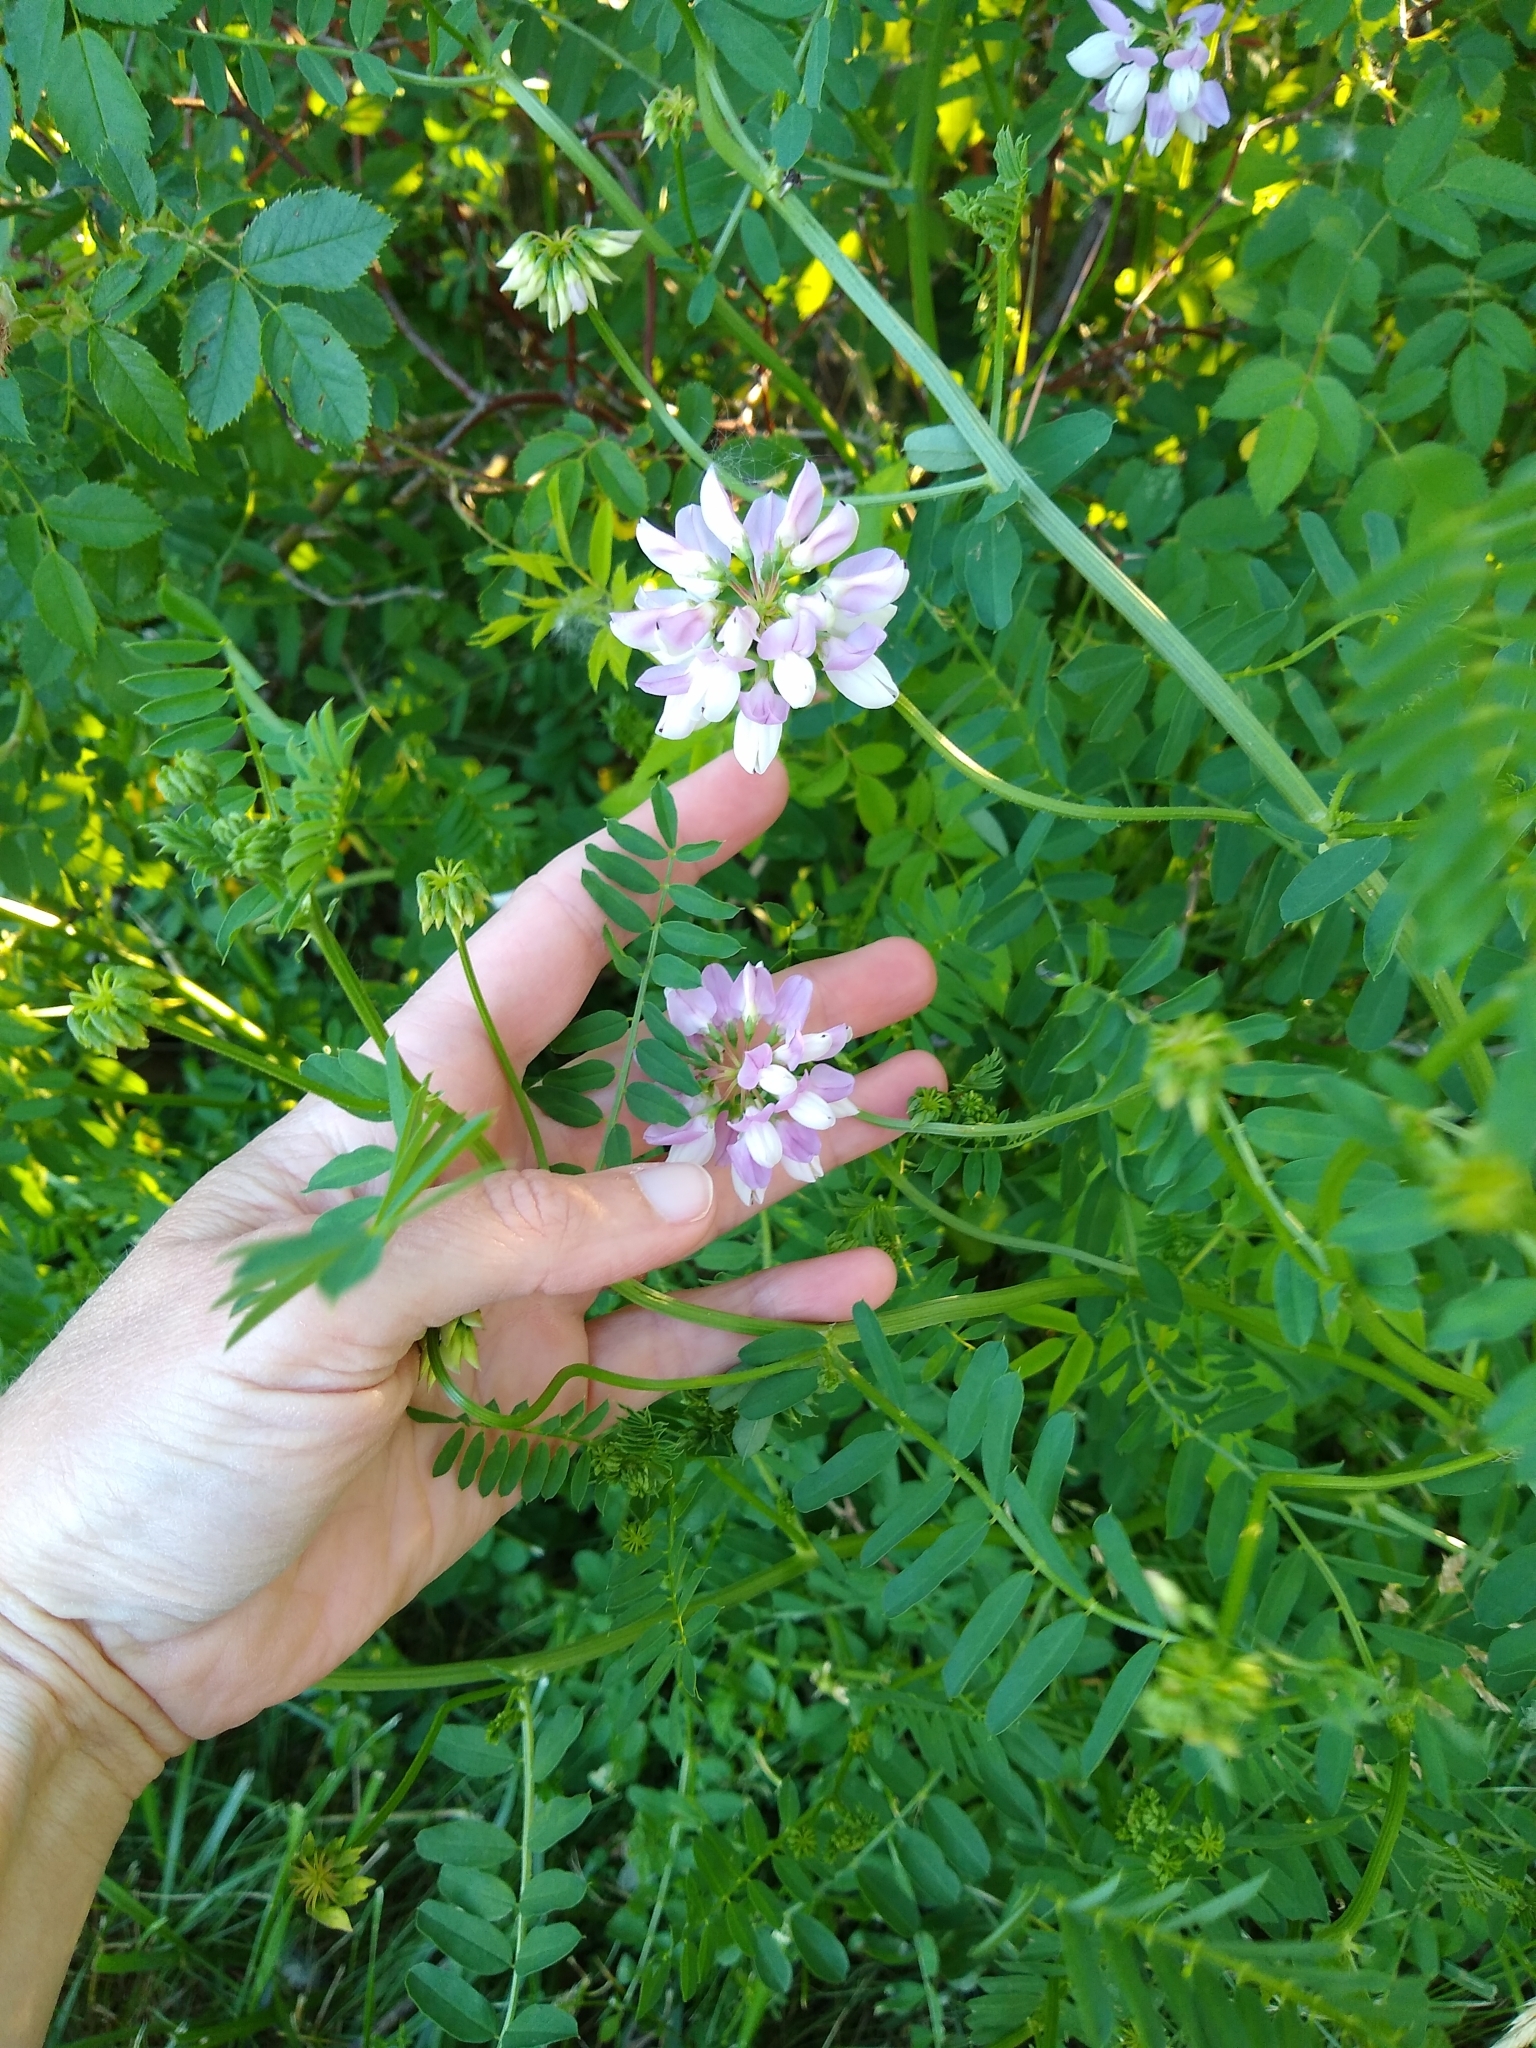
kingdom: Plantae
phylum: Tracheophyta
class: Magnoliopsida
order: Fabales
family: Fabaceae
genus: Coronilla
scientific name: Coronilla varia
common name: Crownvetch
